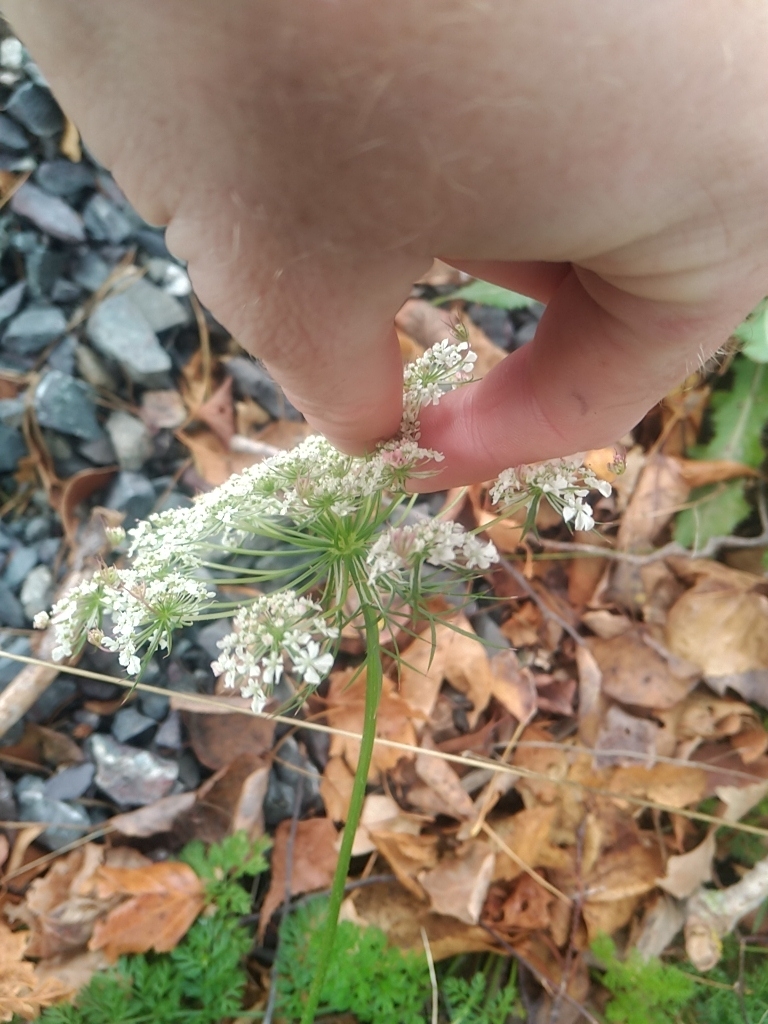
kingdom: Plantae
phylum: Tracheophyta
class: Magnoliopsida
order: Apiales
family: Apiaceae
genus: Daucus
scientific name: Daucus carota
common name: Wild carrot
